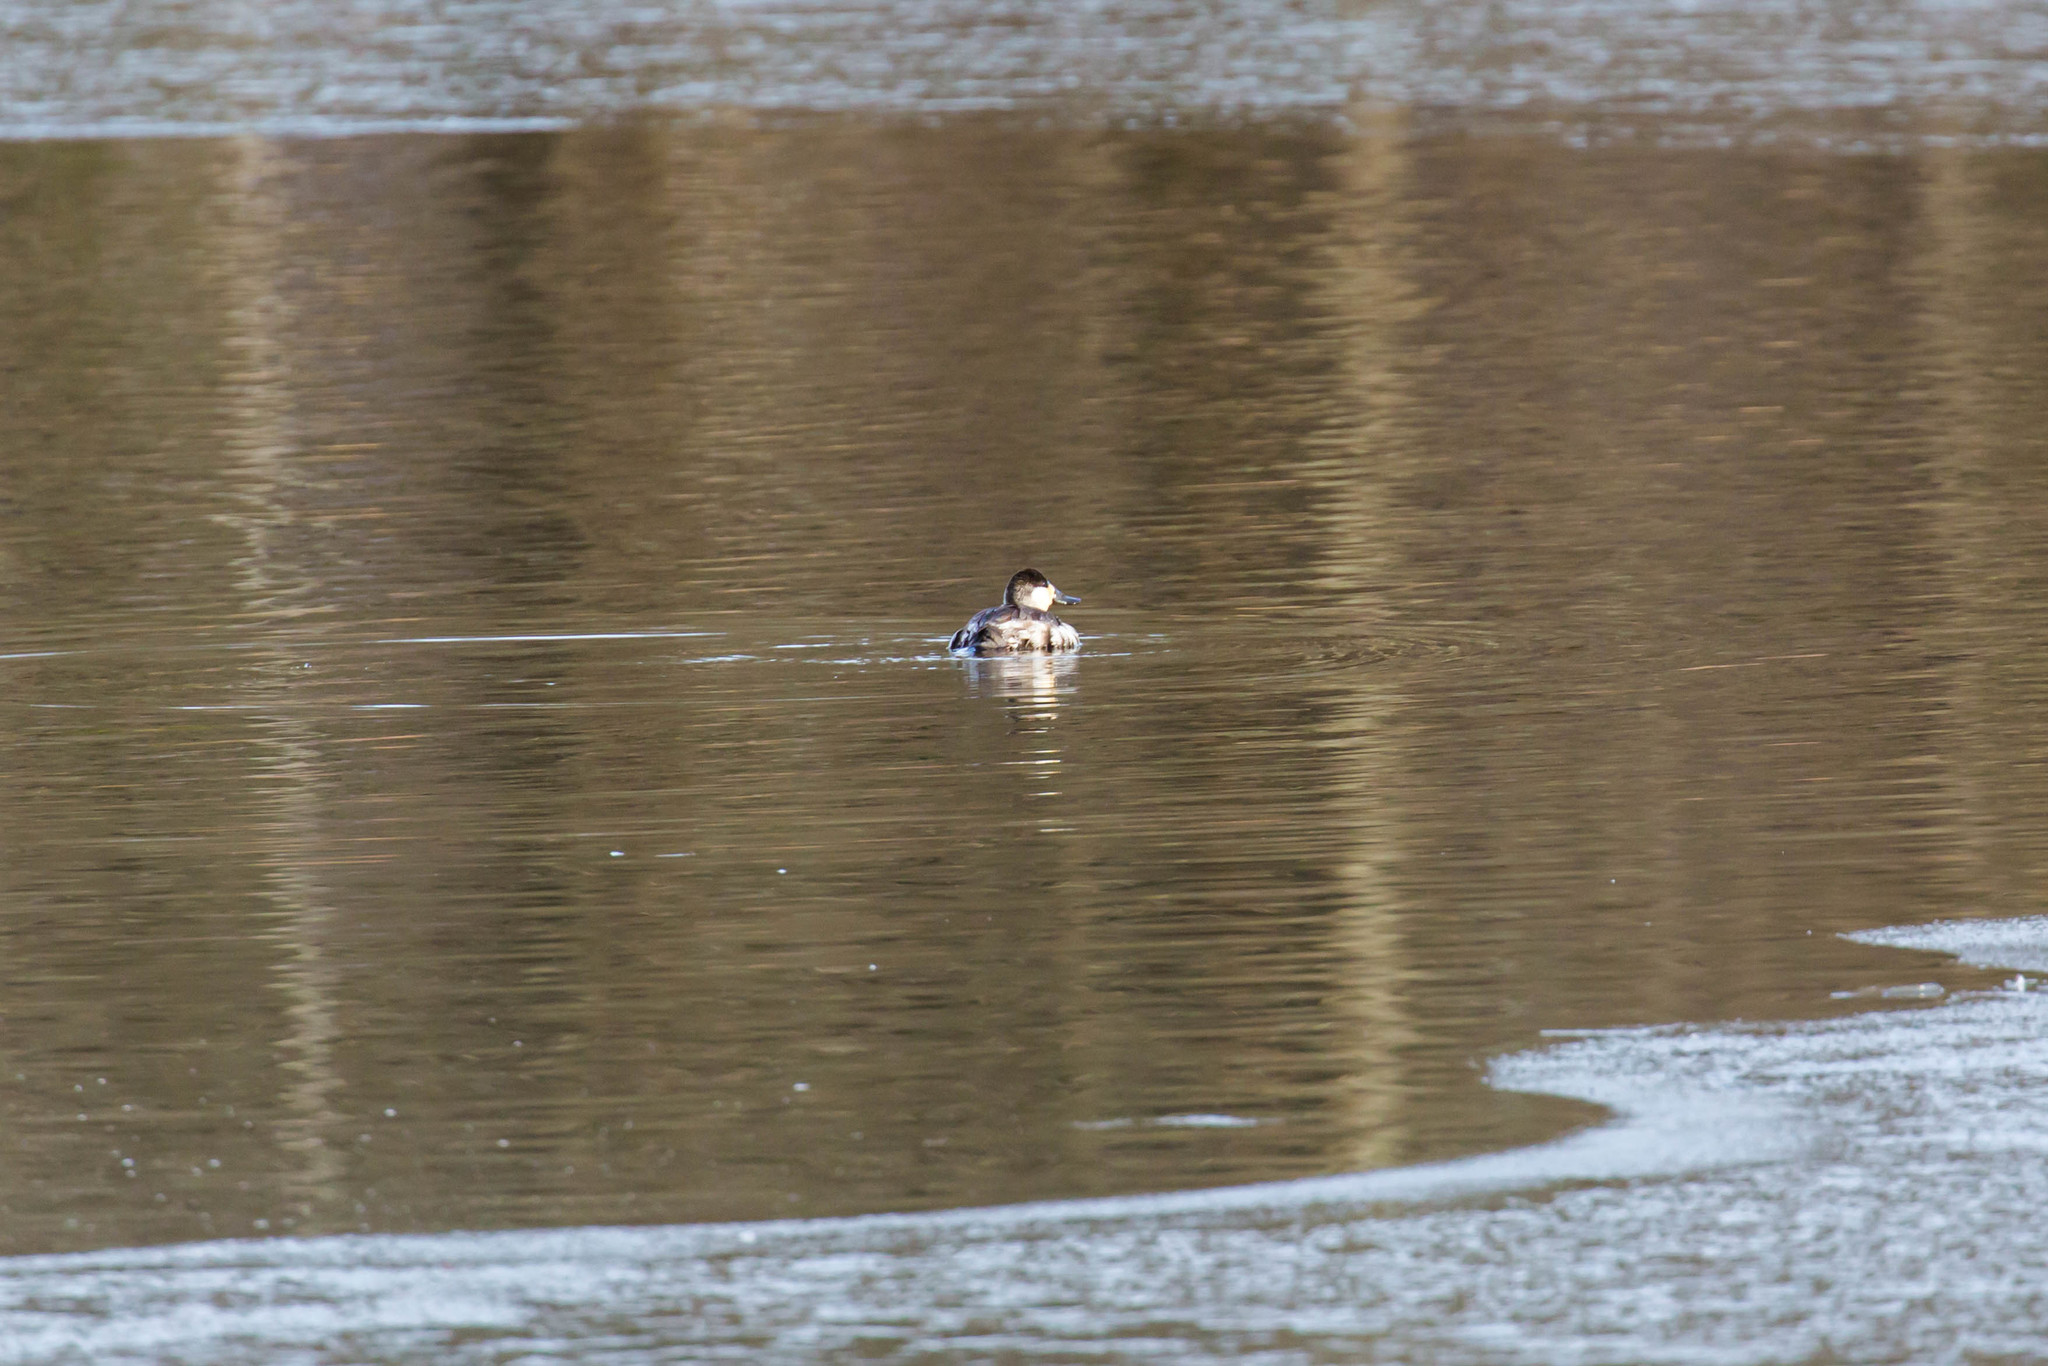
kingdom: Animalia
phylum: Chordata
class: Aves
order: Anseriformes
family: Anatidae
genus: Oxyura
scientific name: Oxyura jamaicensis
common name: Ruddy duck
